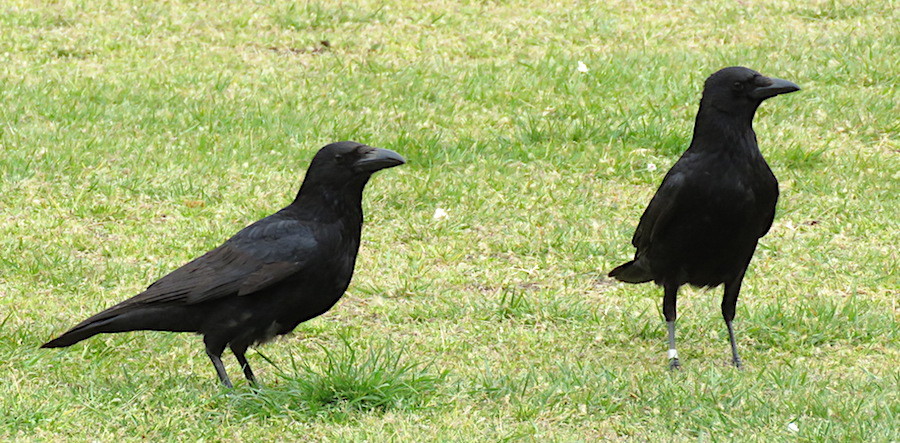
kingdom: Animalia
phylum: Chordata
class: Aves
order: Passeriformes
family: Corvidae
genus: Corvus
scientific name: Corvus corone
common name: Carrion crow
